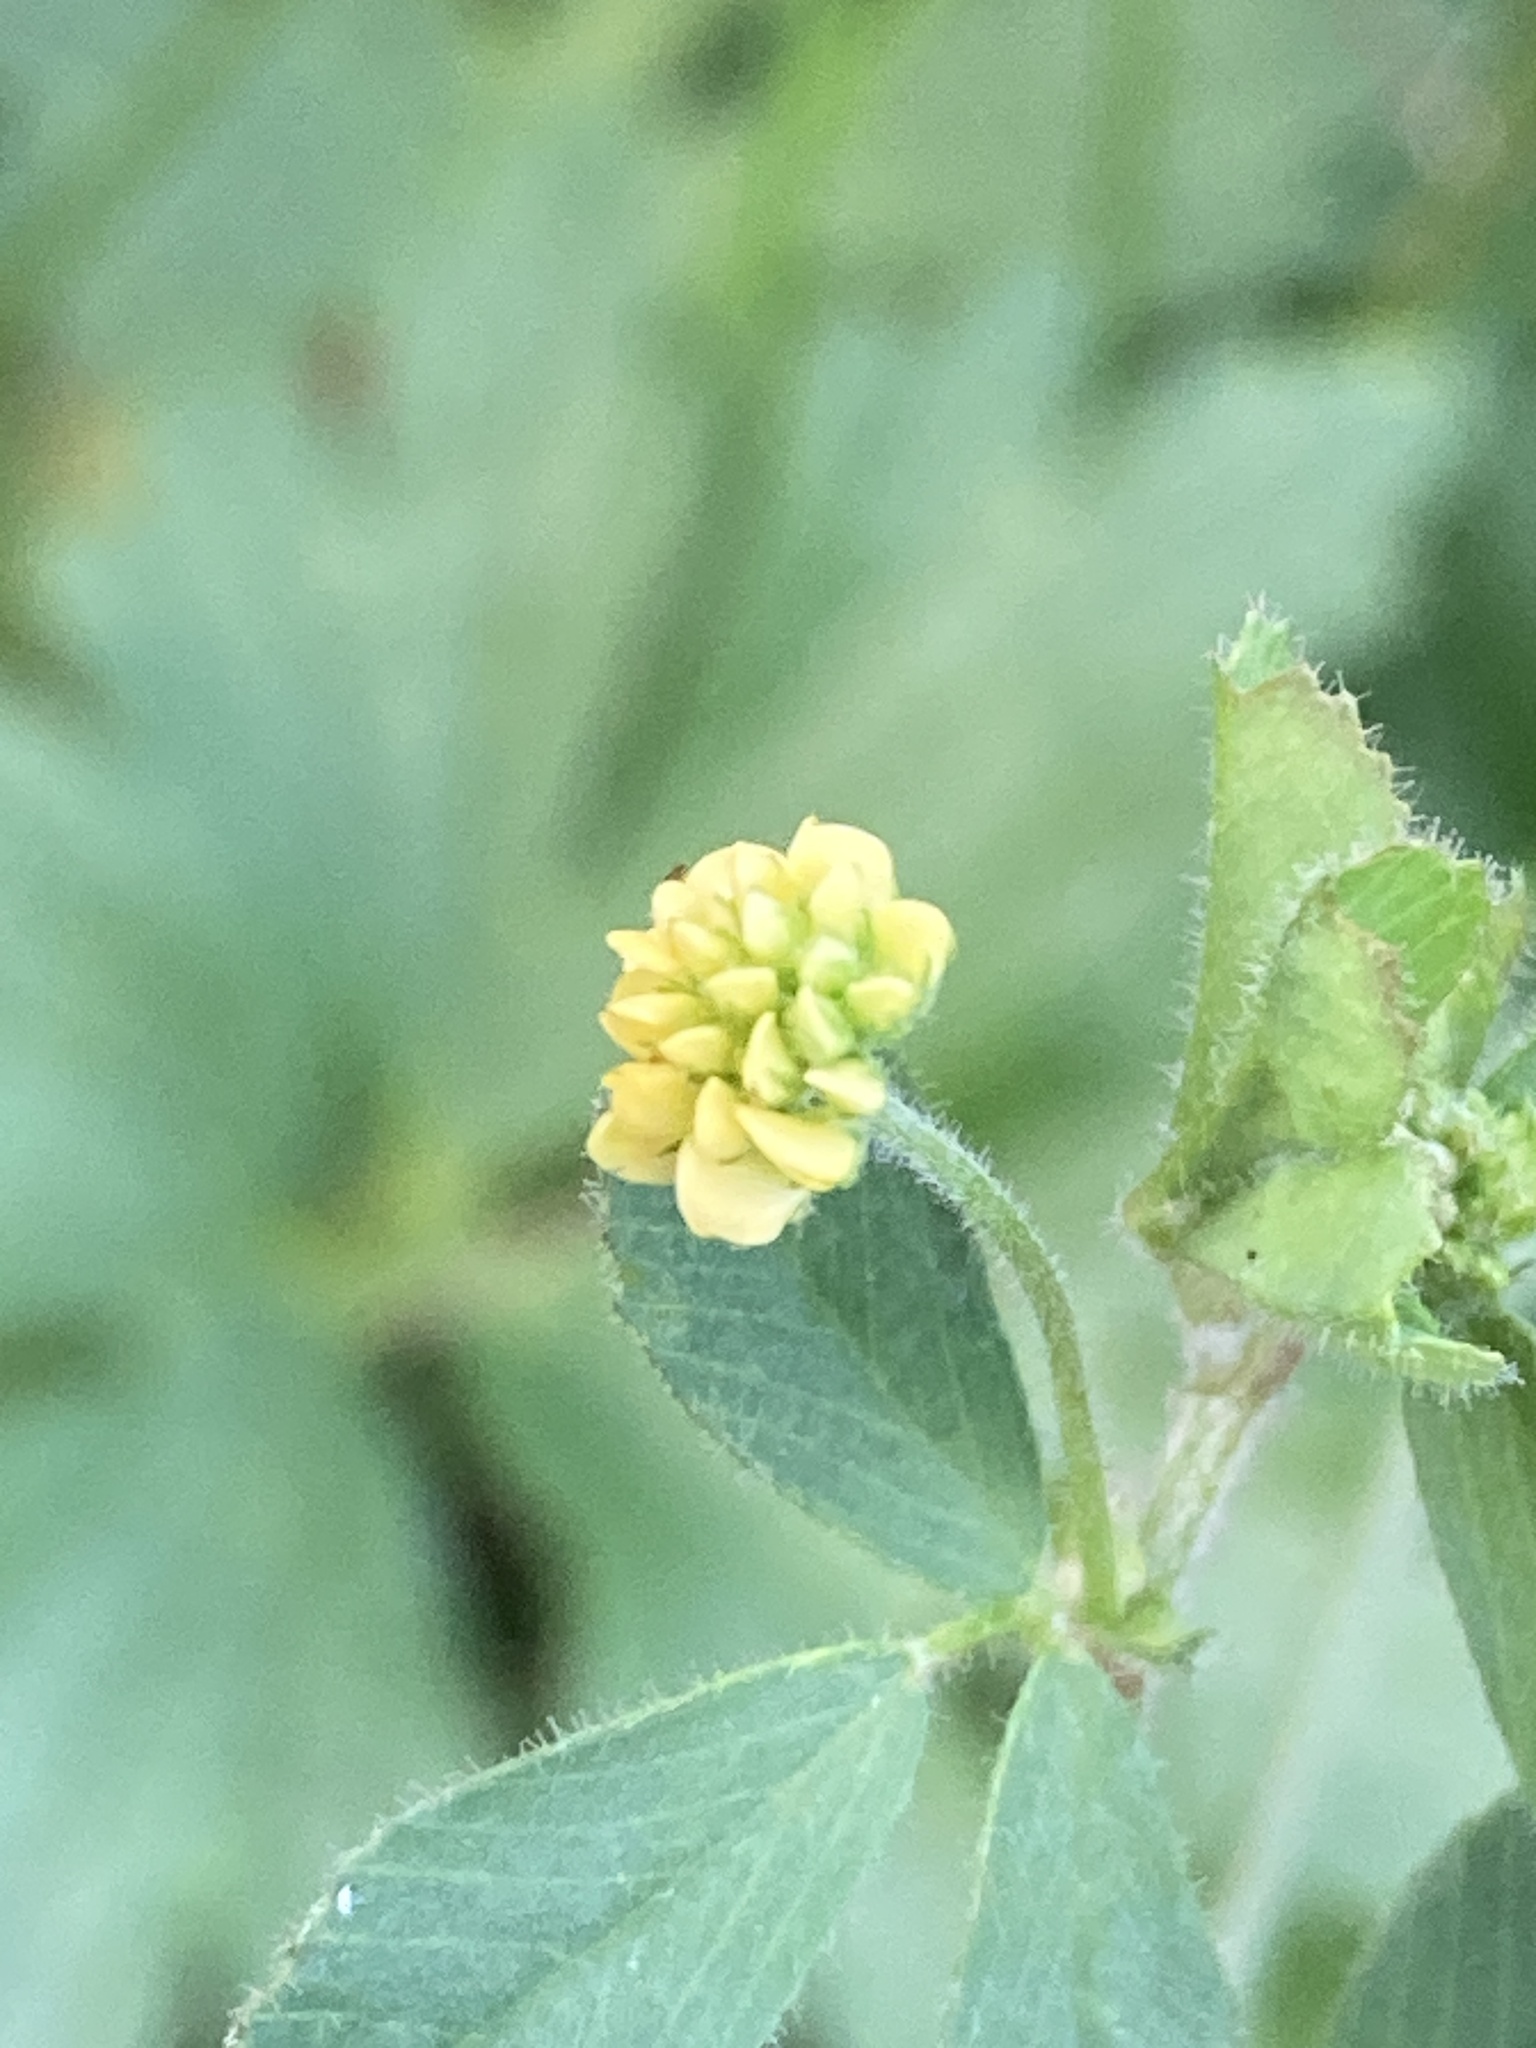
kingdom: Plantae
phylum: Tracheophyta
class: Magnoliopsida
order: Fabales
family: Fabaceae
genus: Medicago
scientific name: Medicago lupulina
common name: Black medick
